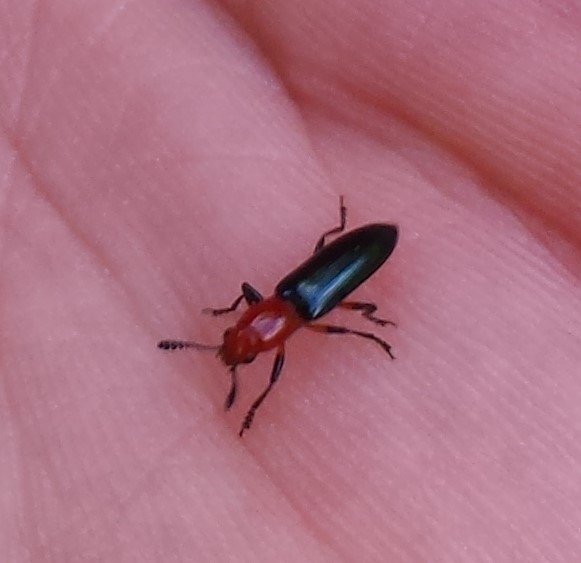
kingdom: Animalia
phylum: Arthropoda
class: Insecta
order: Coleoptera
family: Erotylidae
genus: Languria
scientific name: Languria mozardi
